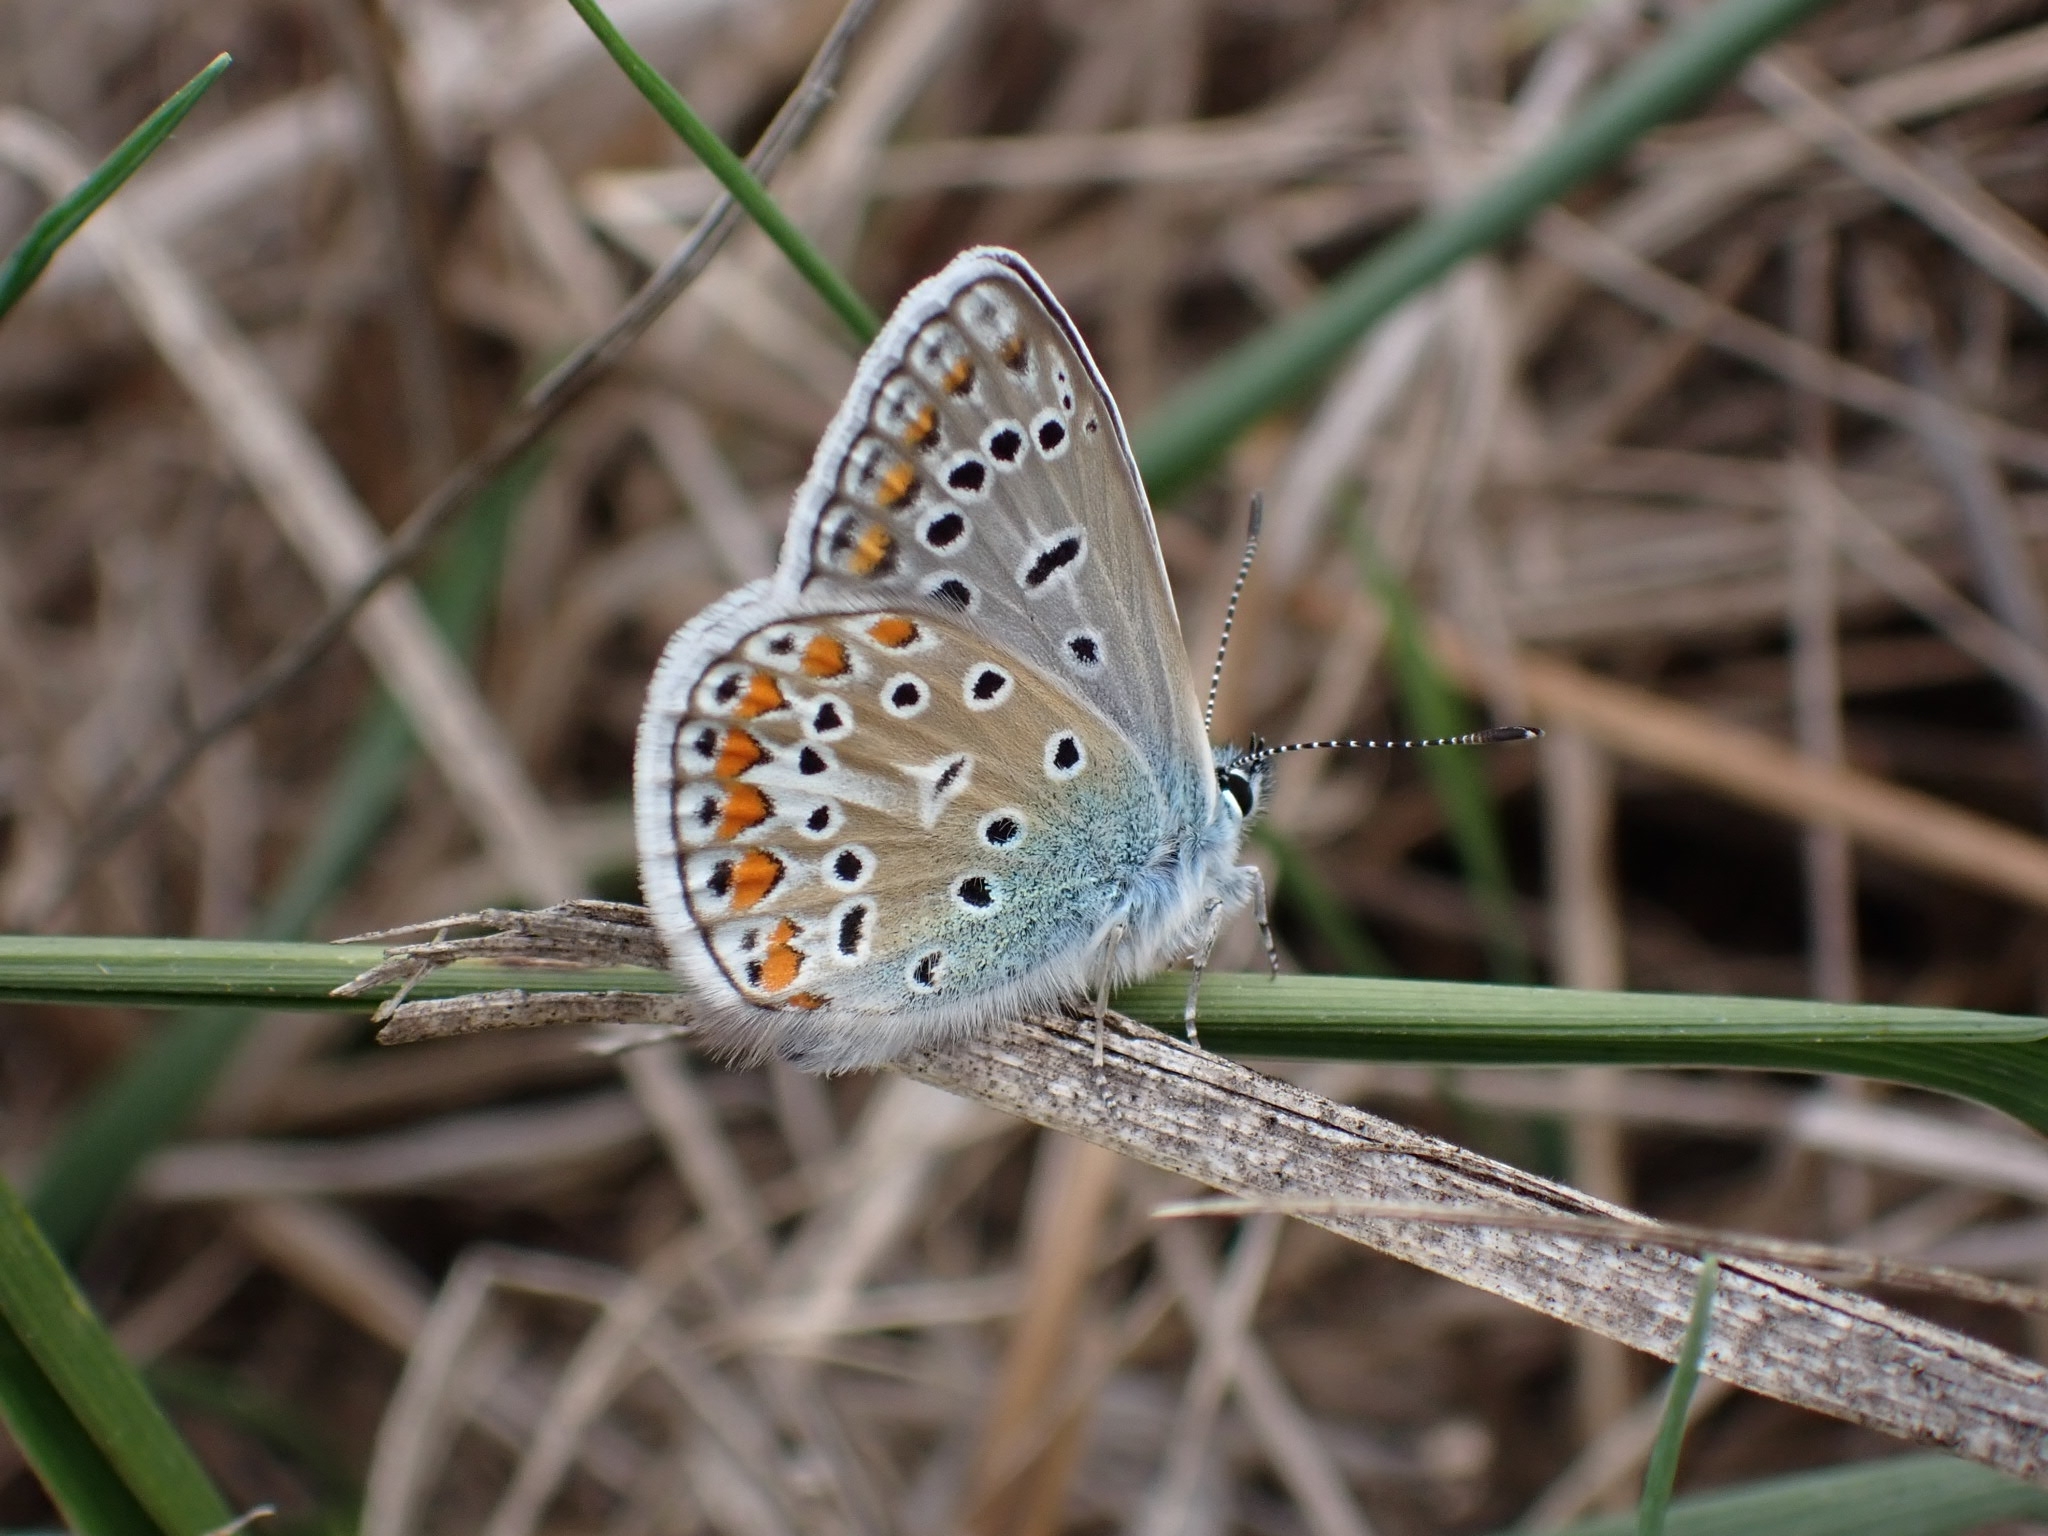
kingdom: Animalia
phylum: Arthropoda
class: Insecta
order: Lepidoptera
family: Lycaenidae
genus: Polyommatus
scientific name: Polyommatus icarus
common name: Common blue
